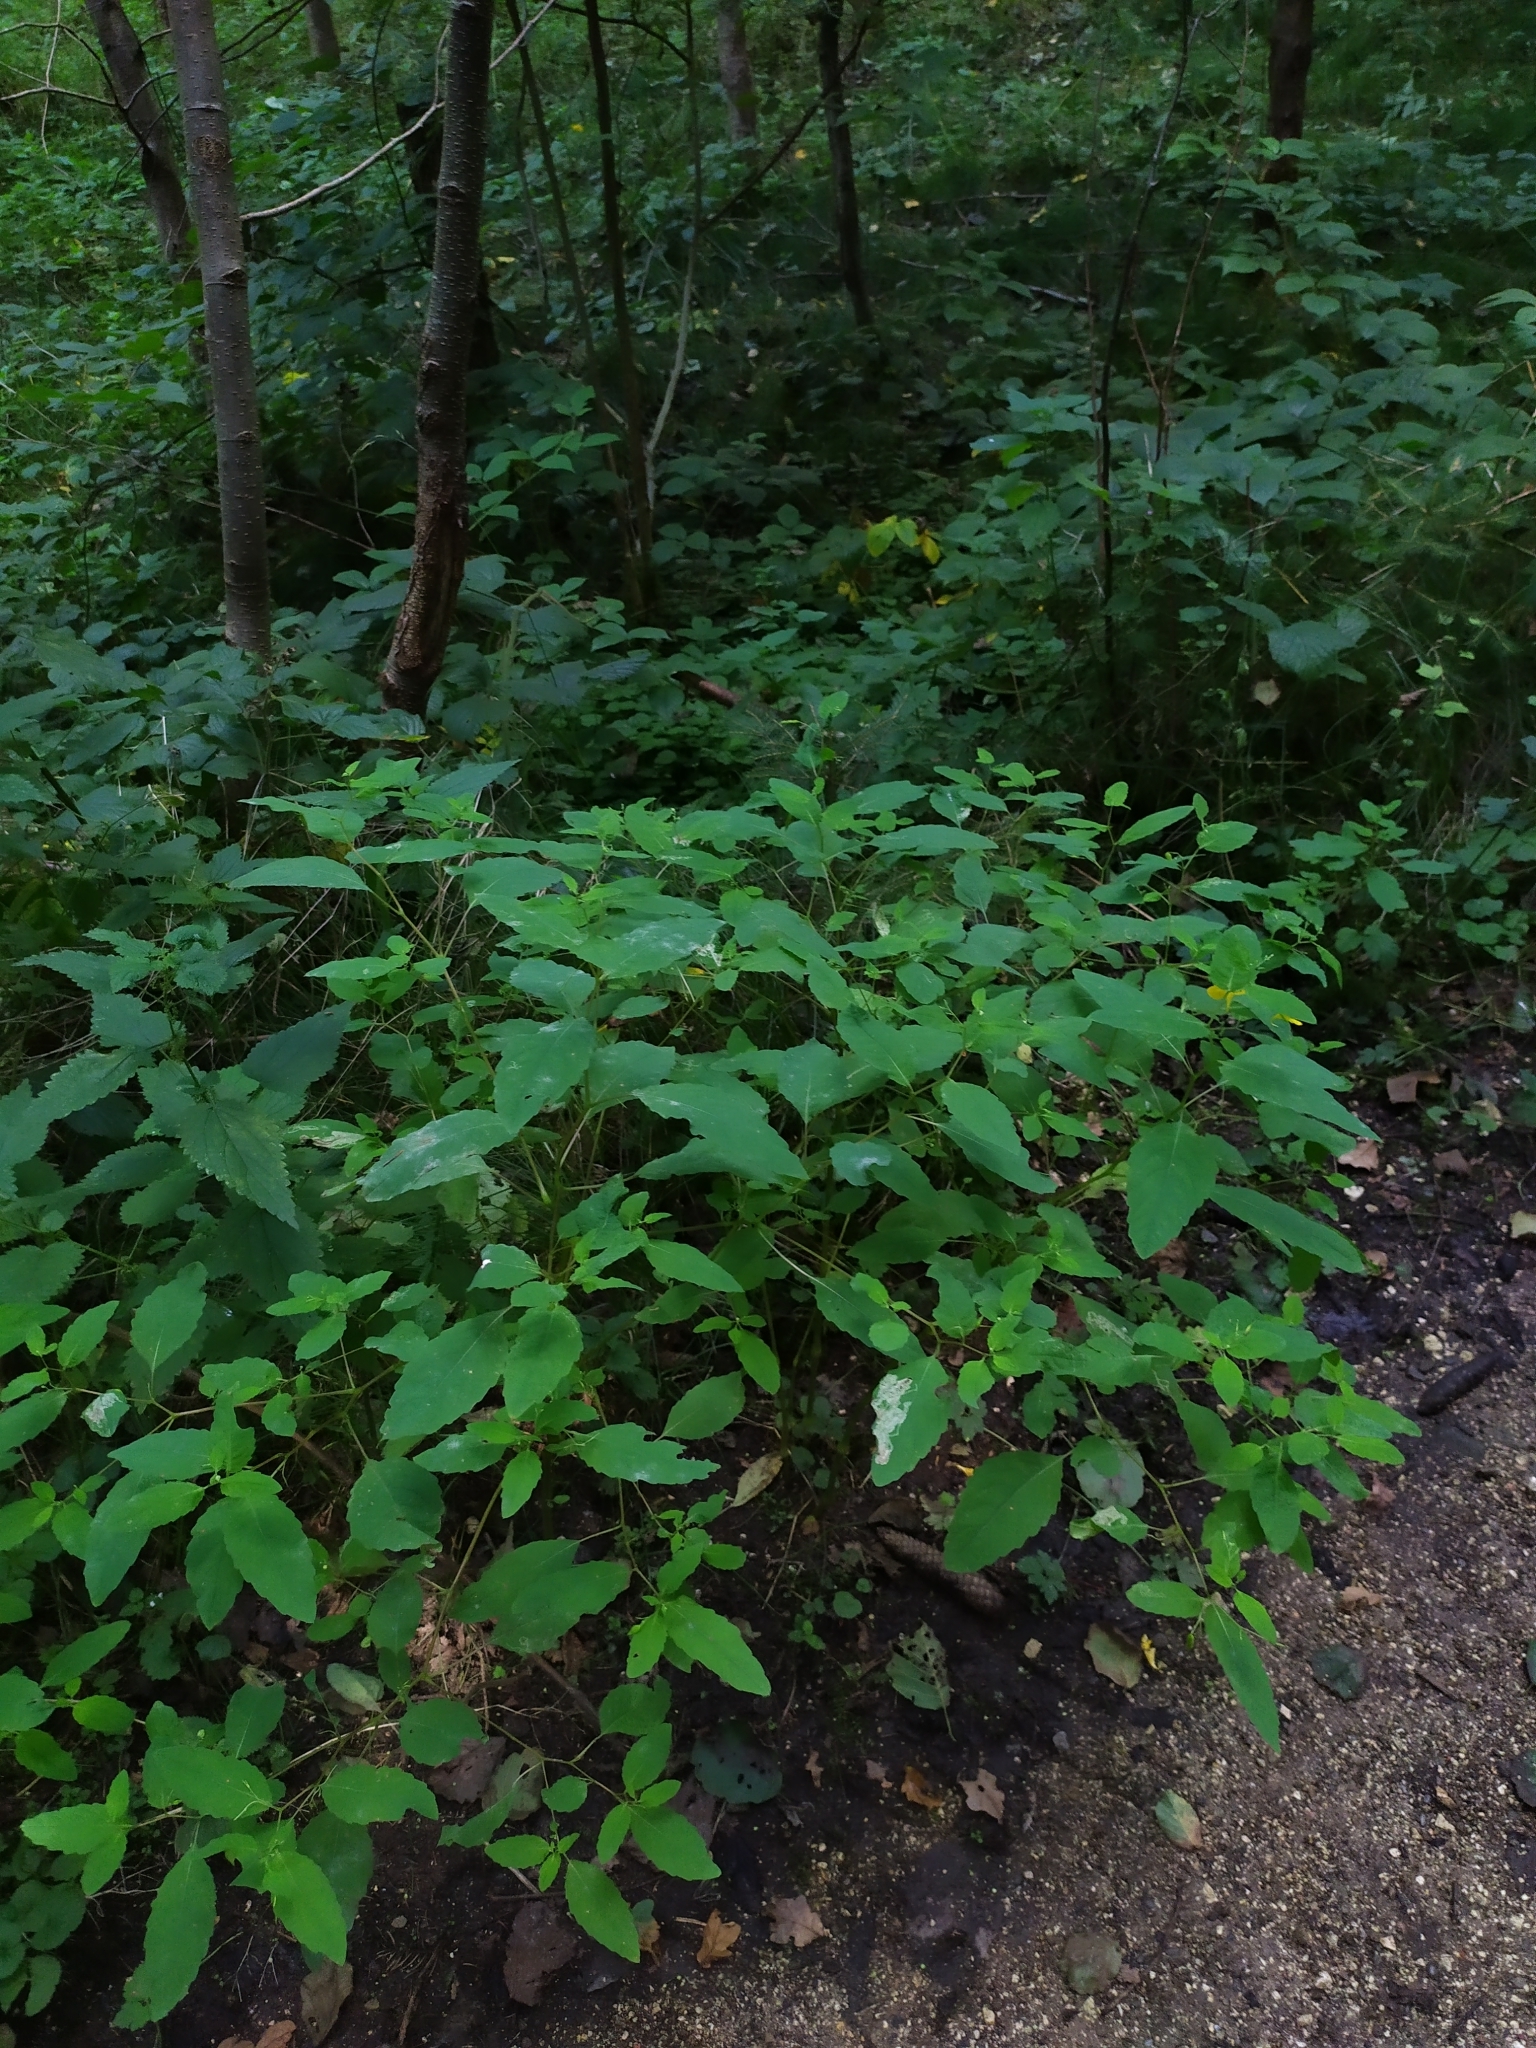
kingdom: Animalia
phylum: Arthropoda
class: Insecta
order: Diptera
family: Agromyzidae
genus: Phytoliriomyza
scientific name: Phytoliriomyza melampyga
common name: Jewelweed leaf-miner fly
